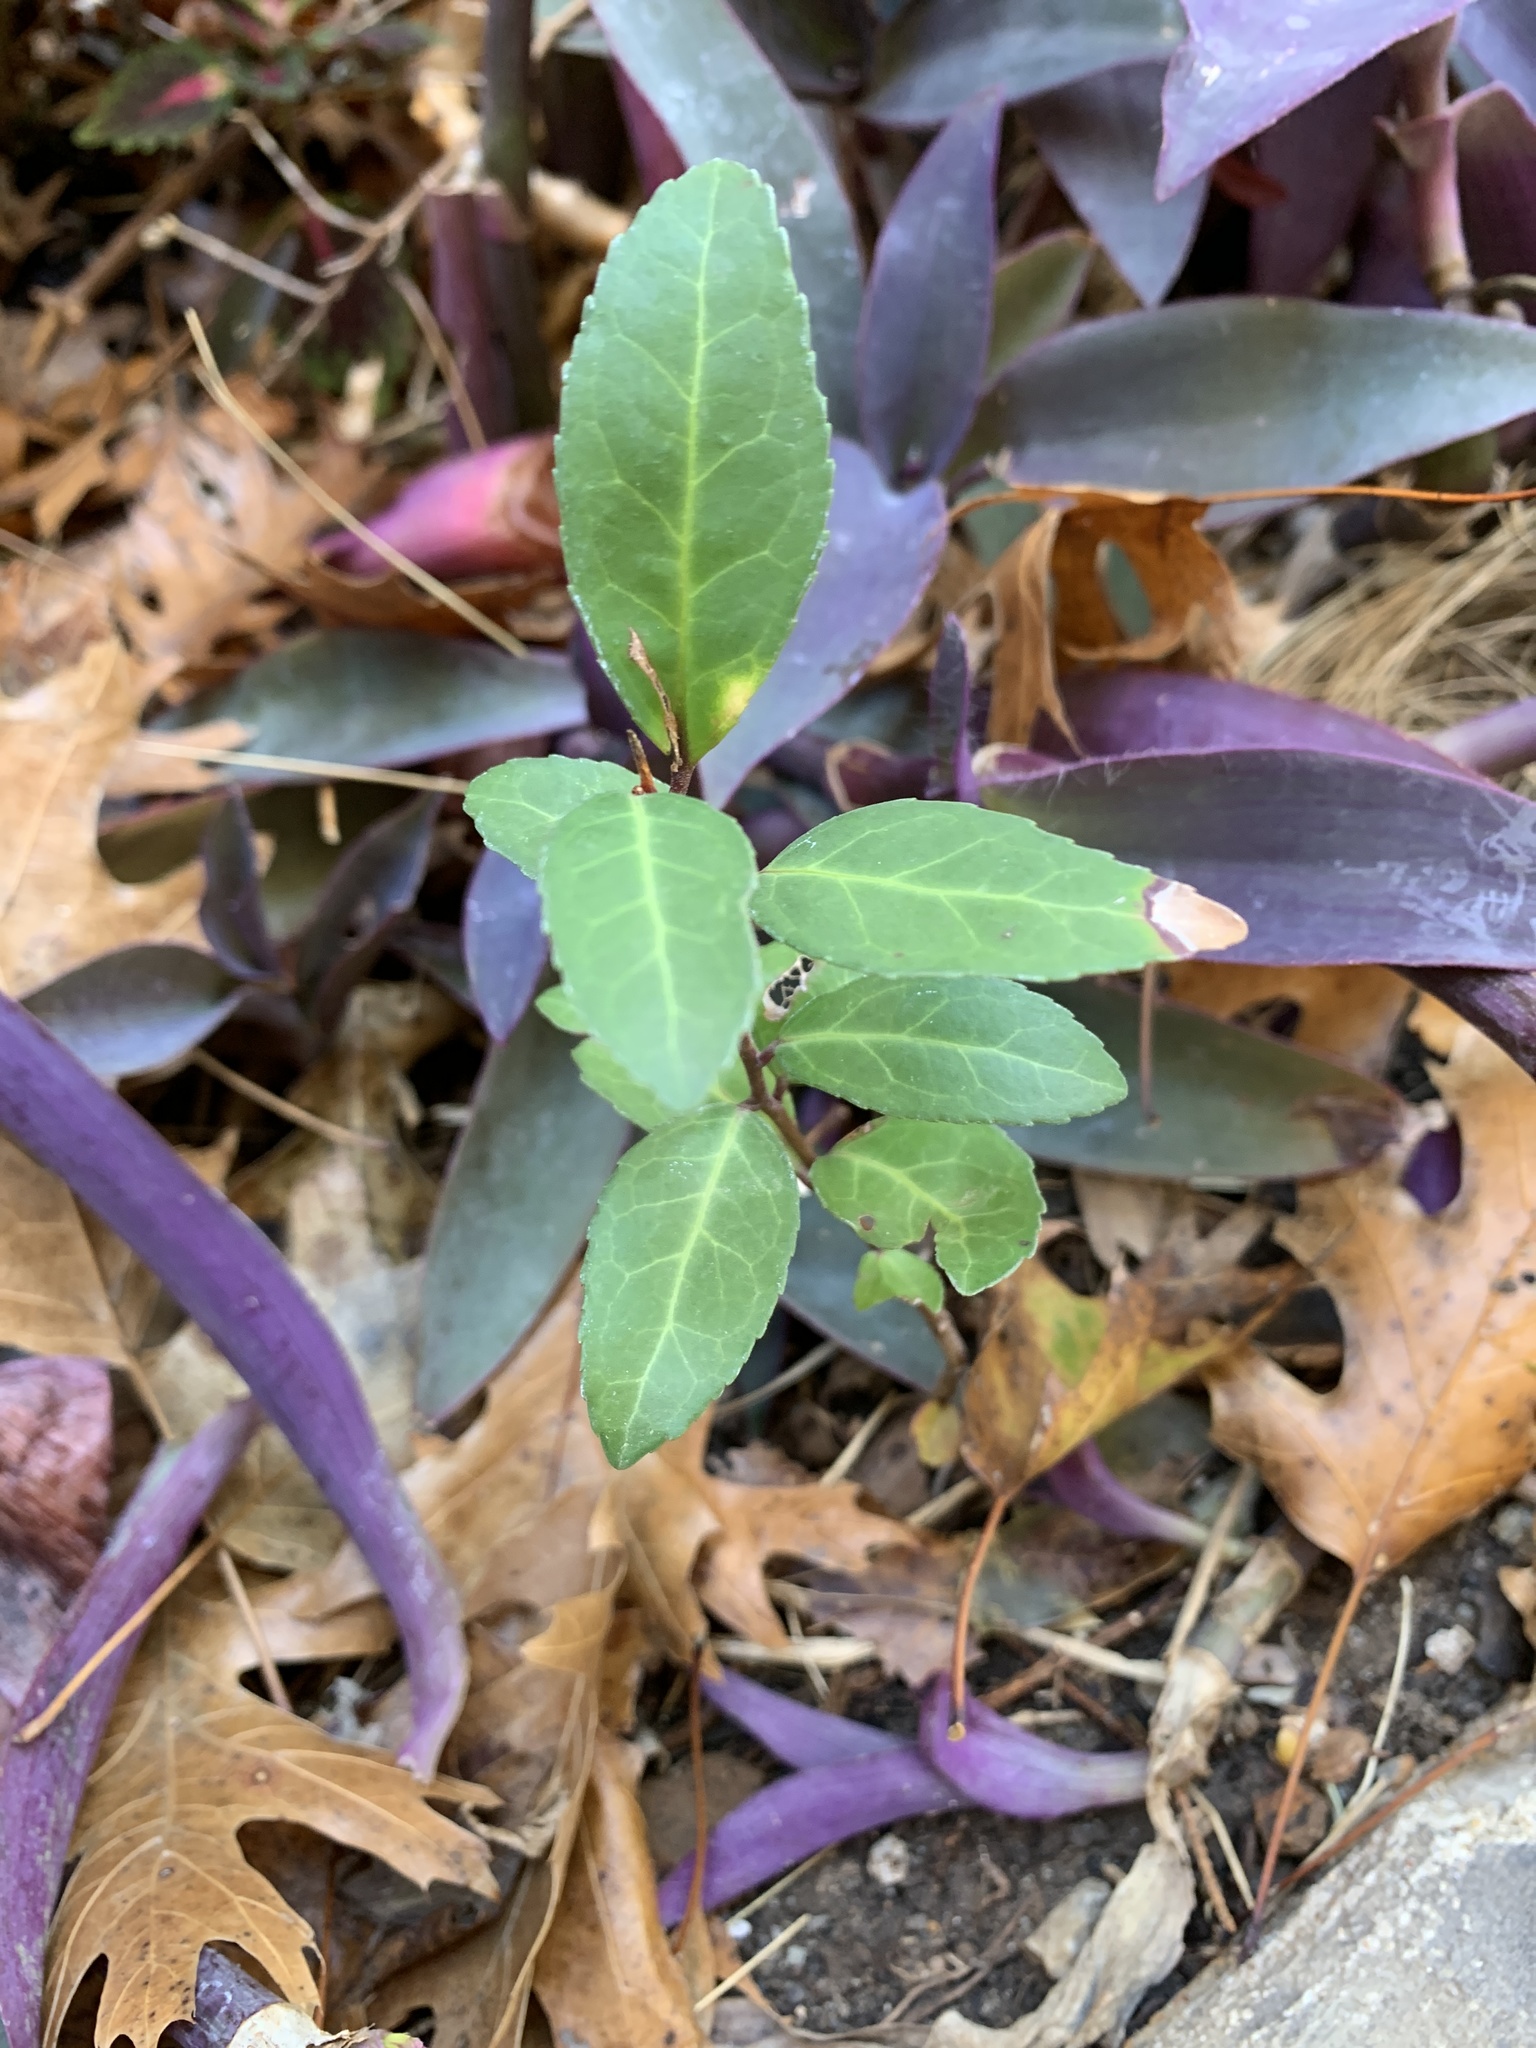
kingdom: Plantae
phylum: Tracheophyta
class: Magnoliopsida
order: Aquifoliales
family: Aquifoliaceae
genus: Ilex
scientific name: Ilex vomitoria
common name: Yaupon holly
